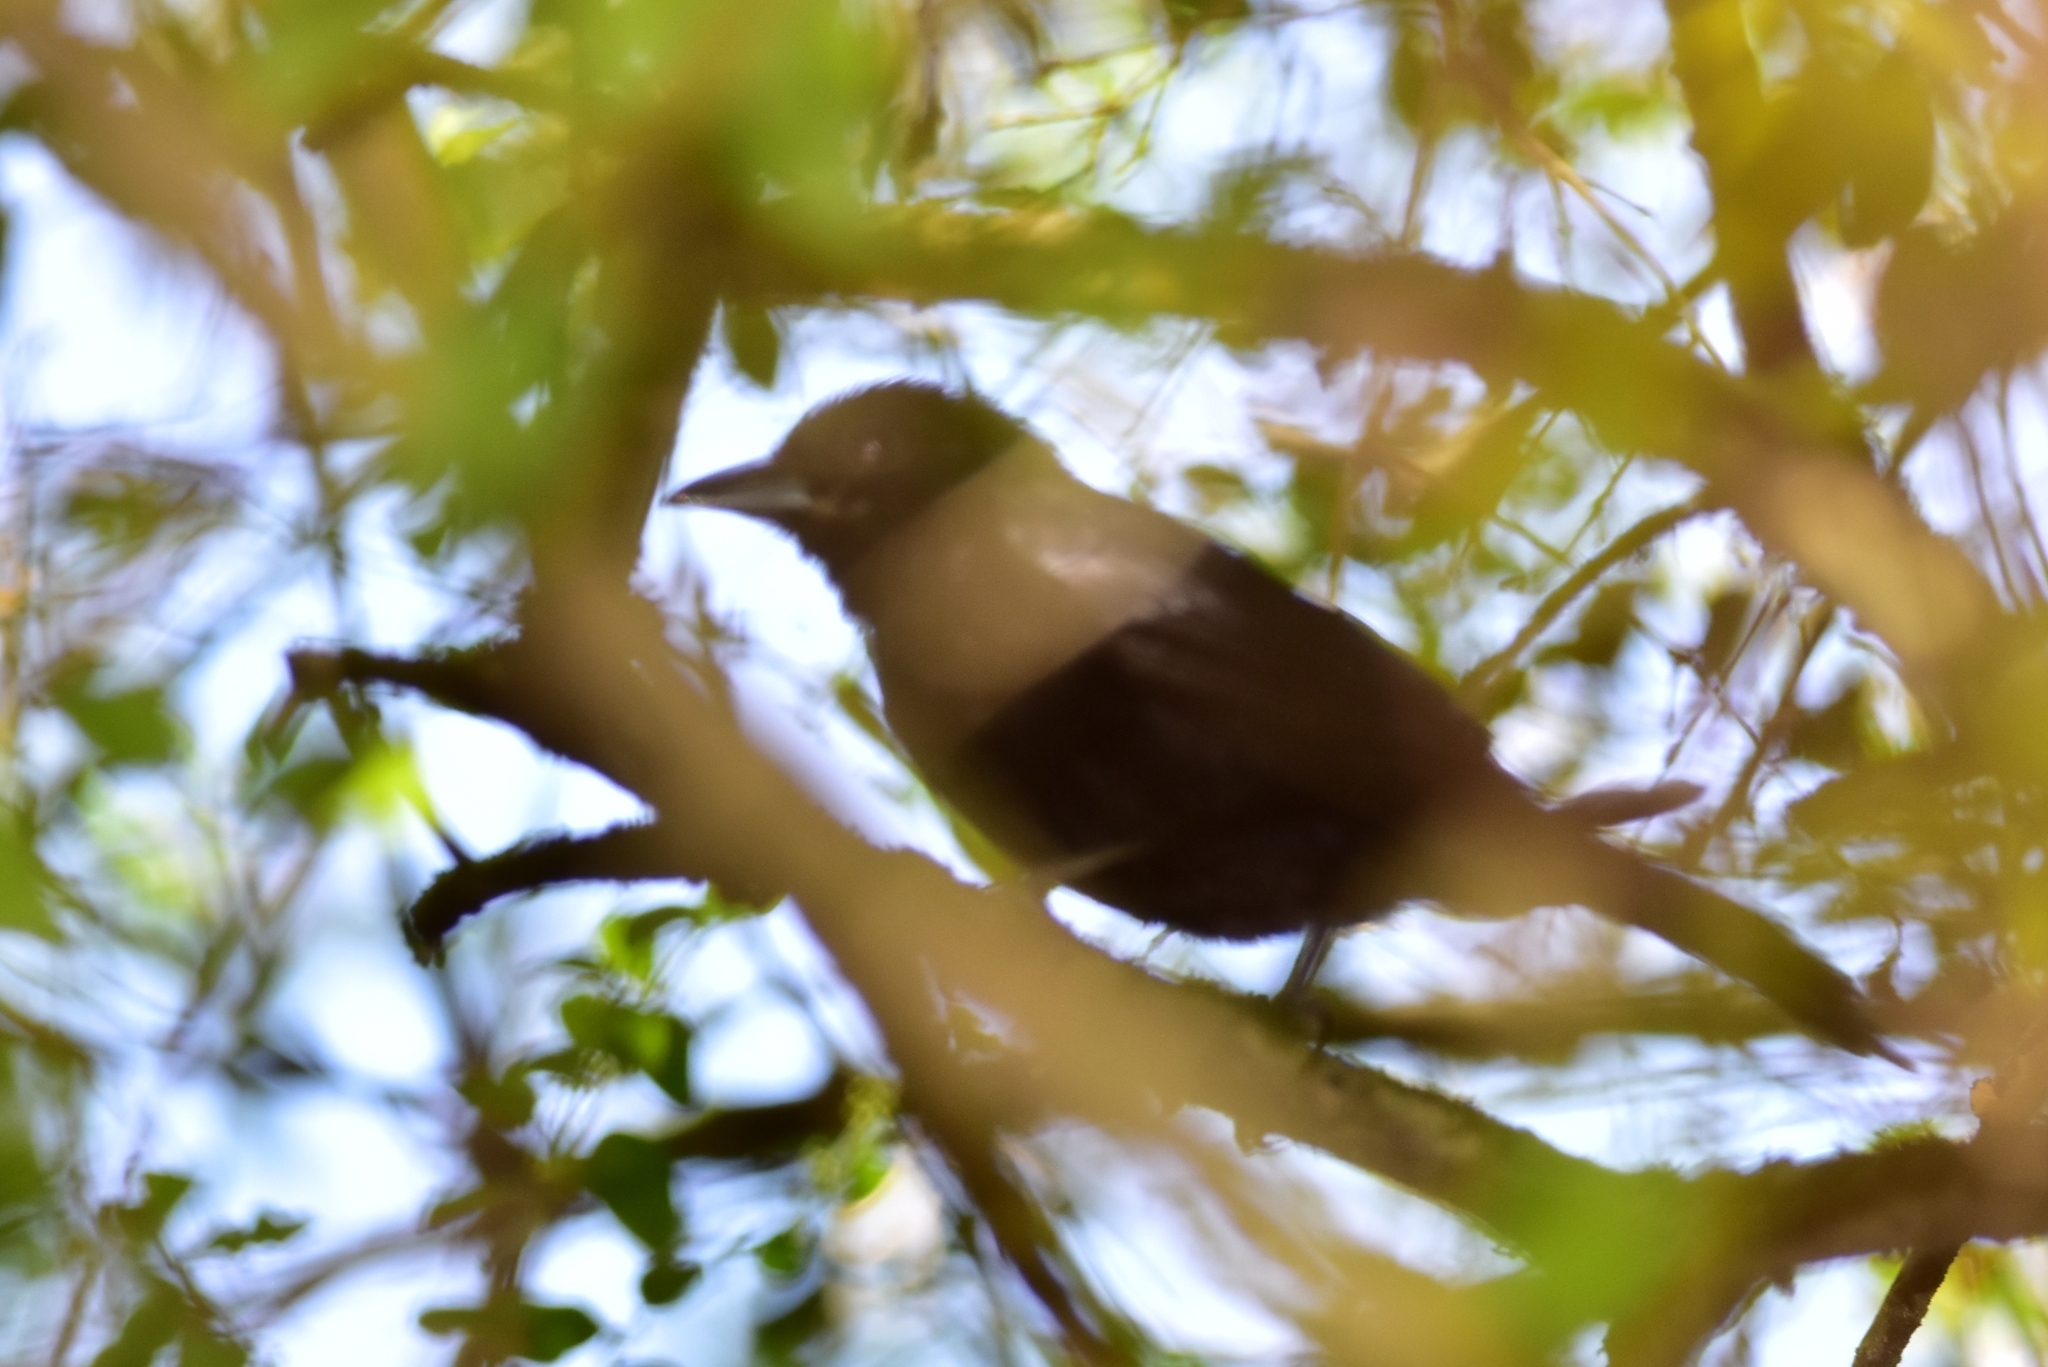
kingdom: Animalia
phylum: Chordata
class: Aves
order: Passeriformes
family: Thraupidae
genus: Tachyphonus
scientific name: Tachyphonus coronatus
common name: Ruby-crowned tanager
